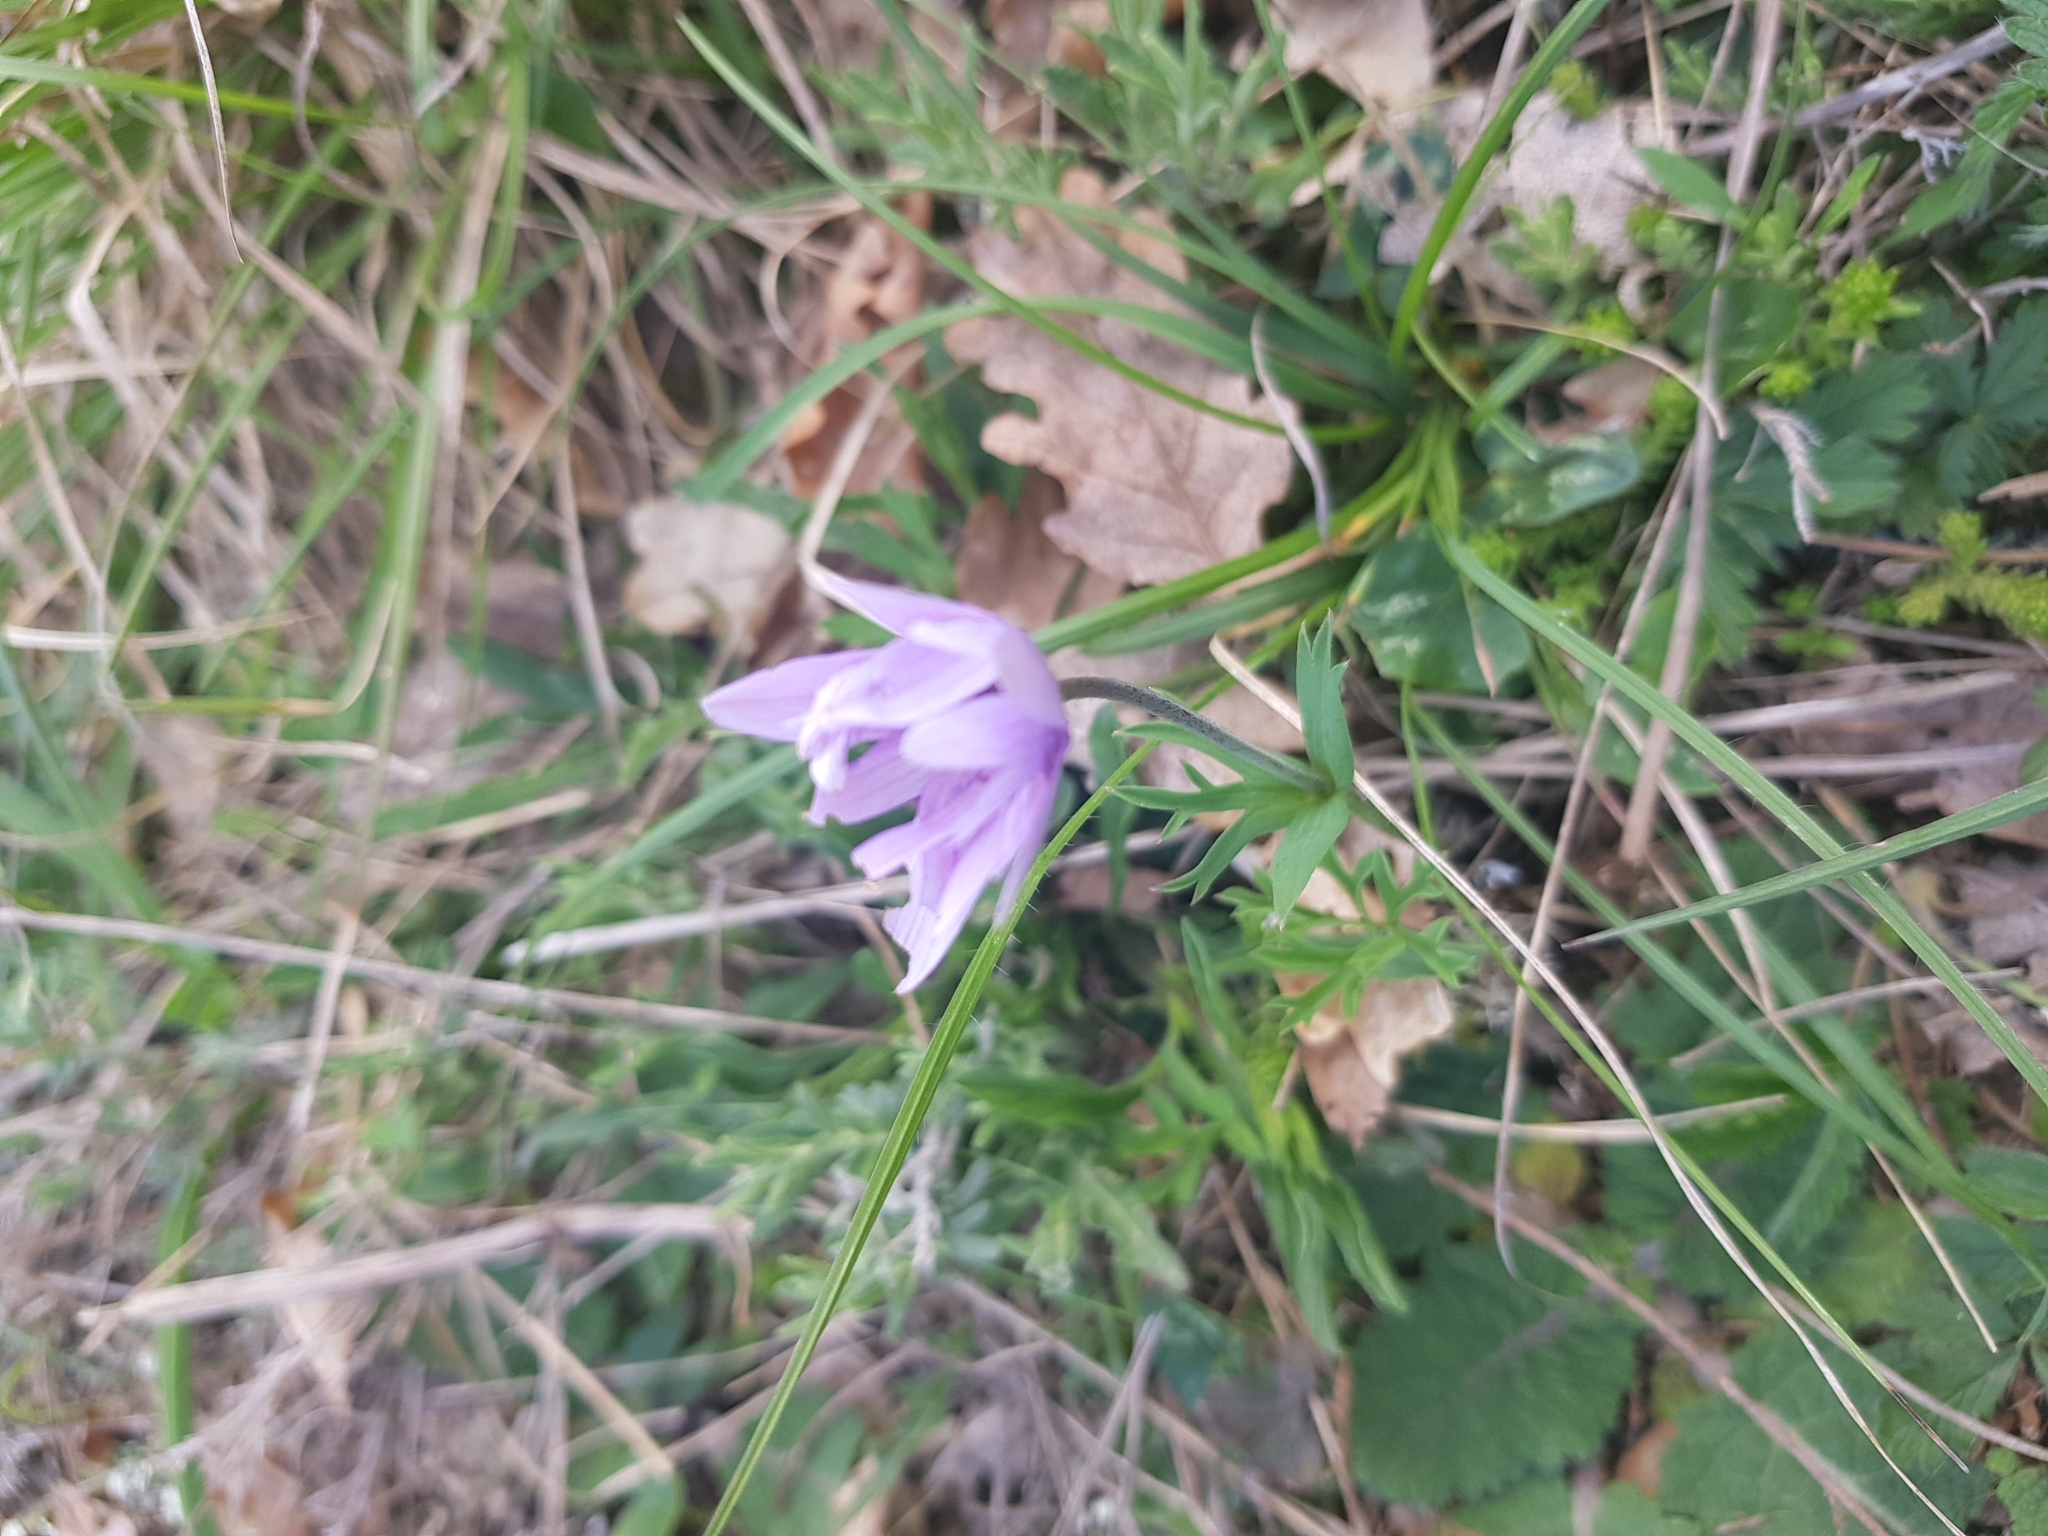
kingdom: Plantae
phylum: Tracheophyta
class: Magnoliopsida
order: Ranunculales
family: Ranunculaceae
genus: Anemone
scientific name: Anemone hortensis
